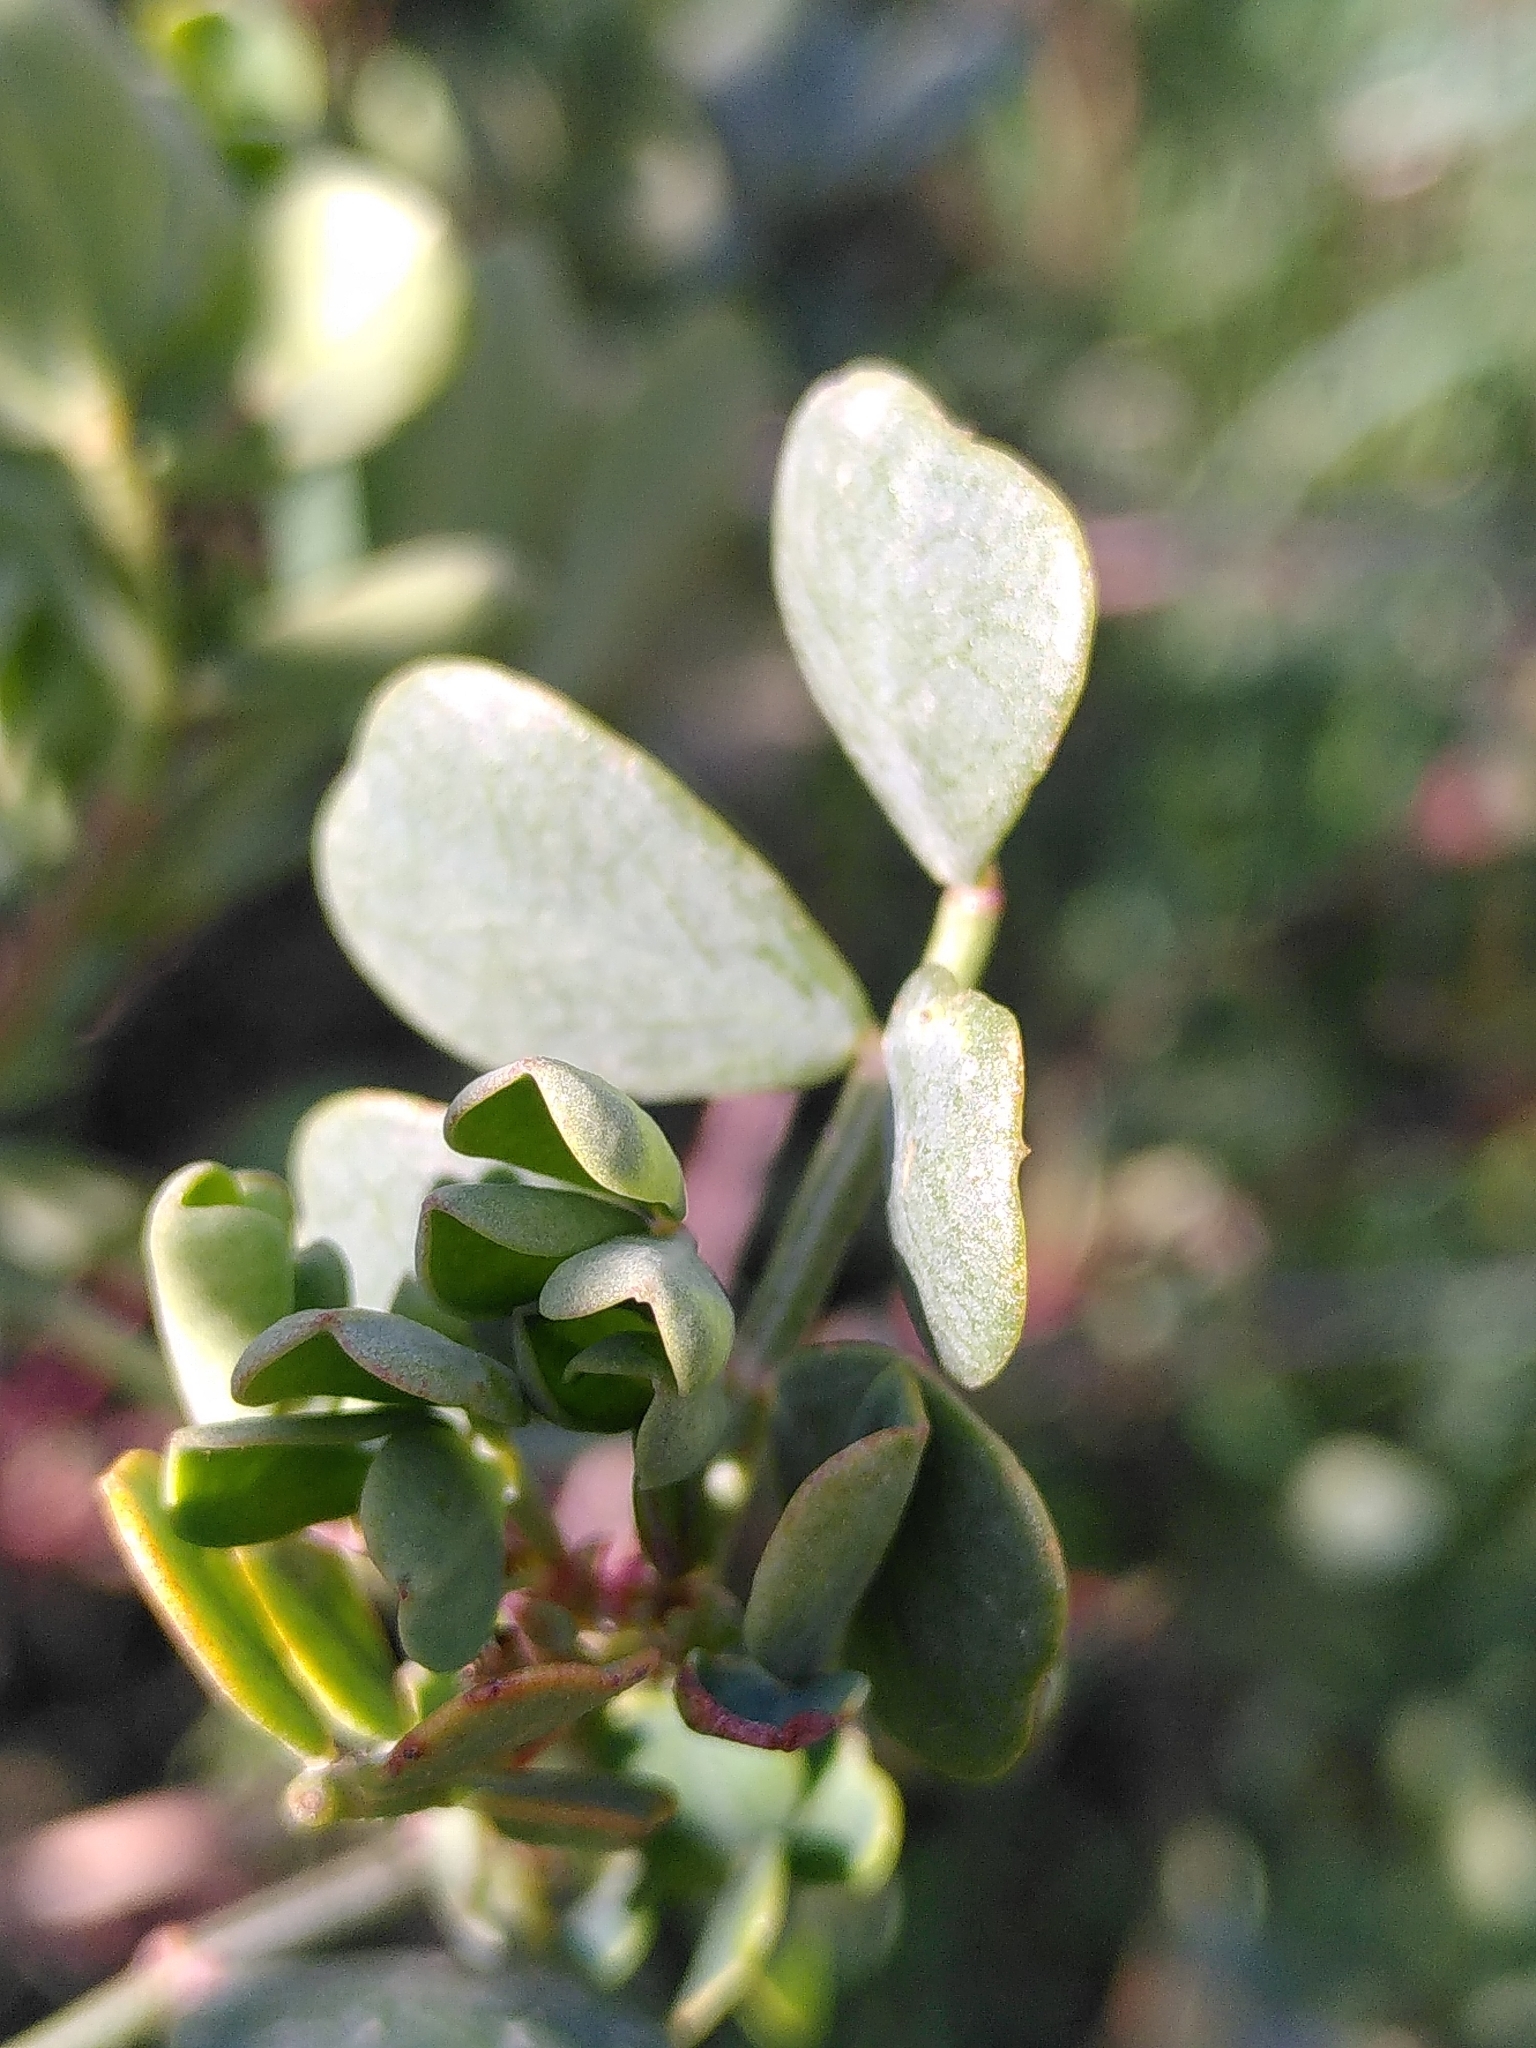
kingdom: Plantae
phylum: Tracheophyta
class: Magnoliopsida
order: Fabales
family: Fabaceae
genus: Coronilla
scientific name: Coronilla valentina
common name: Shrubby scorpion-vetch
